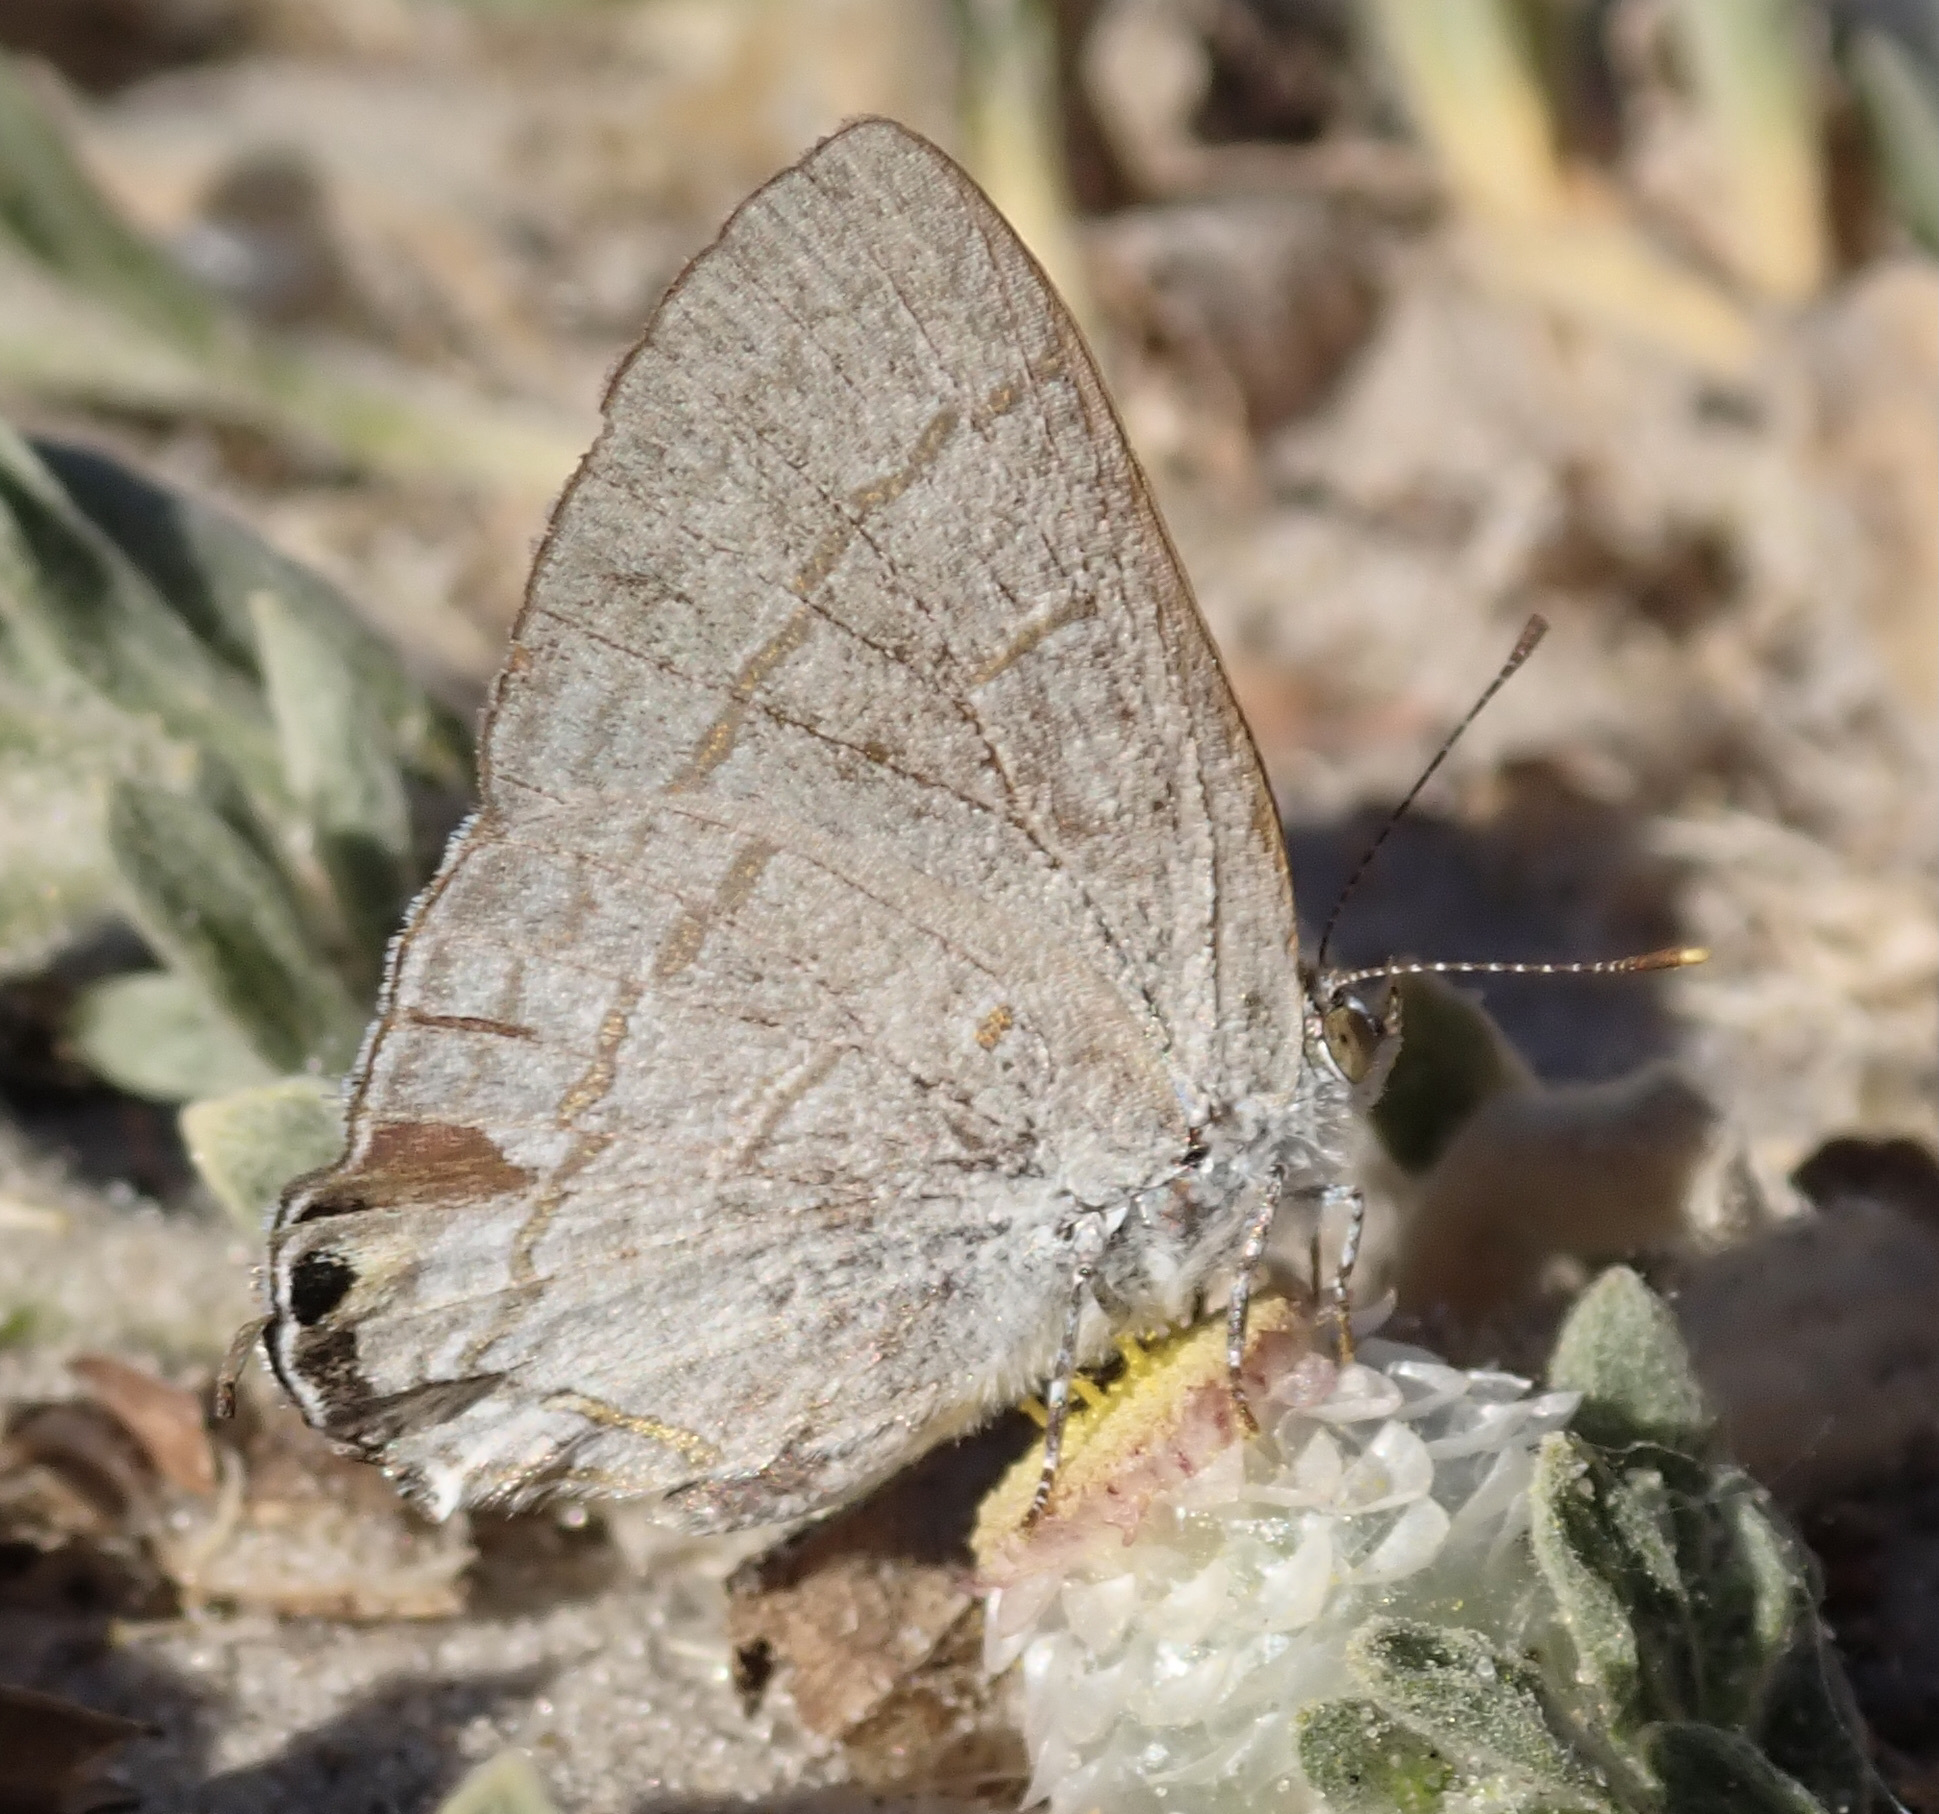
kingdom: Animalia
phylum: Arthropoda
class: Insecta
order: Lepidoptera
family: Lycaenidae
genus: Hypolycaena
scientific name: Hypolycaena philippus
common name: Common hairstreak
